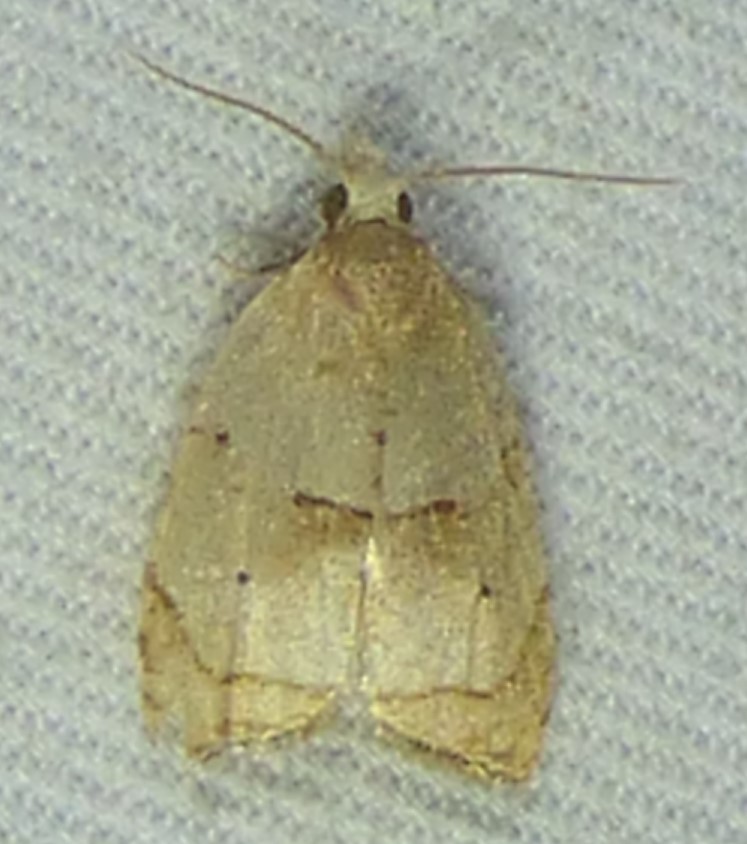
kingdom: Animalia
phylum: Arthropoda
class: Insecta
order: Lepidoptera
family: Tortricidae
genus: Coelostathma
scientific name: Coelostathma discopunctana
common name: Batman moth
